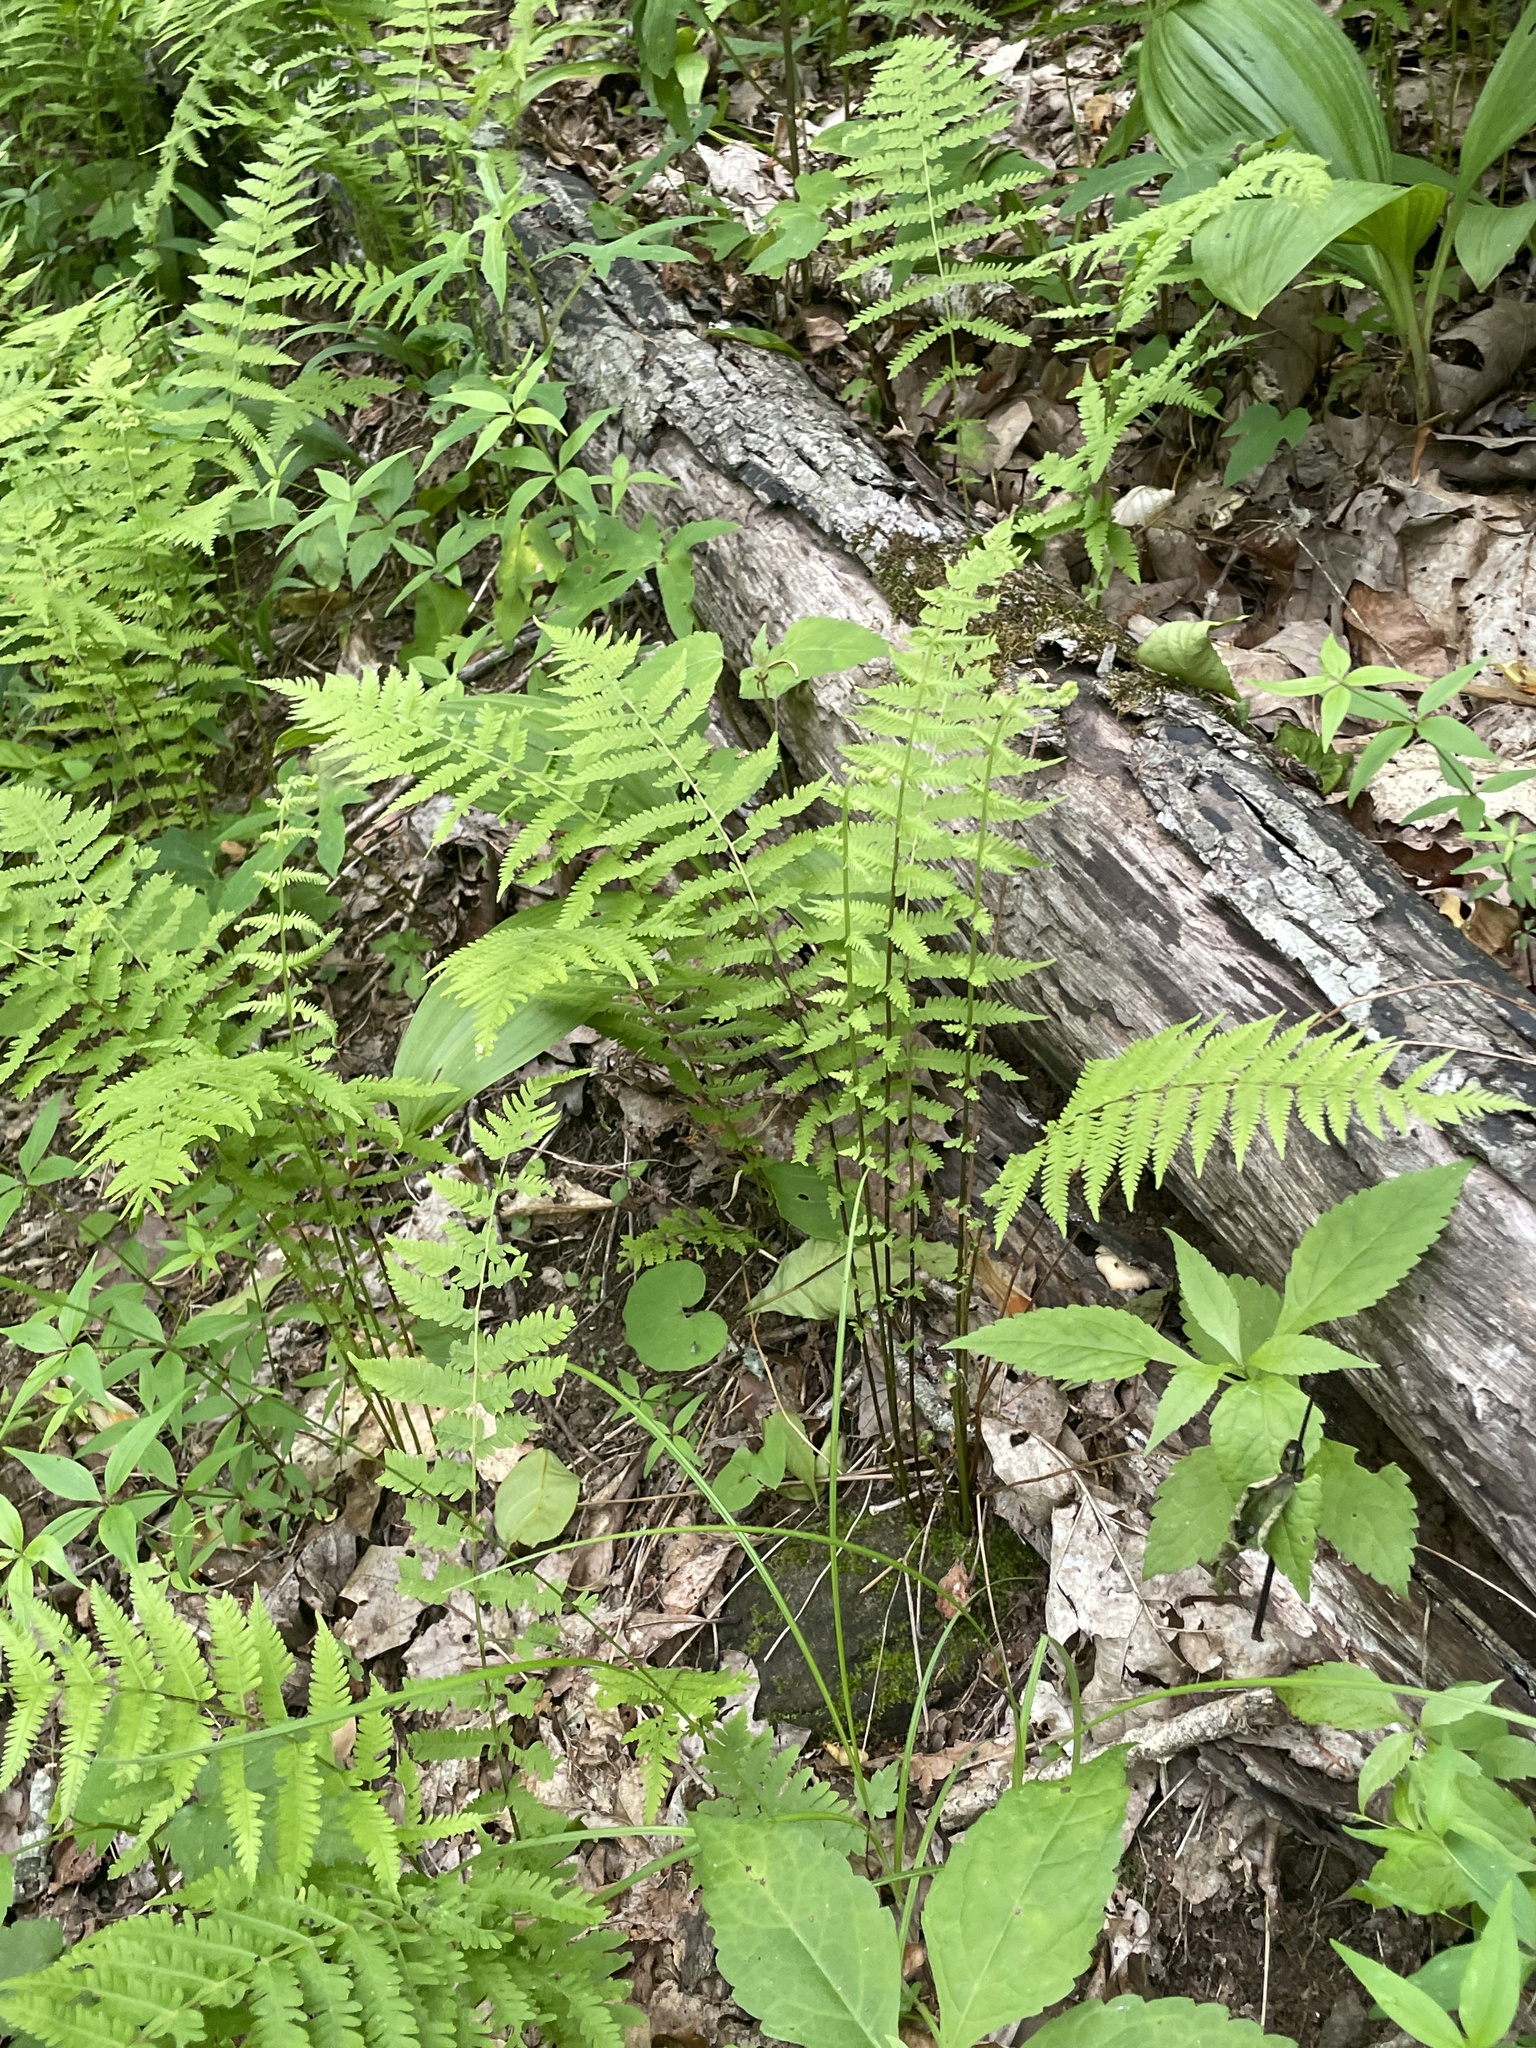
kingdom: Plantae
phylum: Tracheophyta
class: Polypodiopsida
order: Polypodiales
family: Athyriaceae
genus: Athyrium
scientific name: Athyrium asplenioides
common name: Southern lady fern
